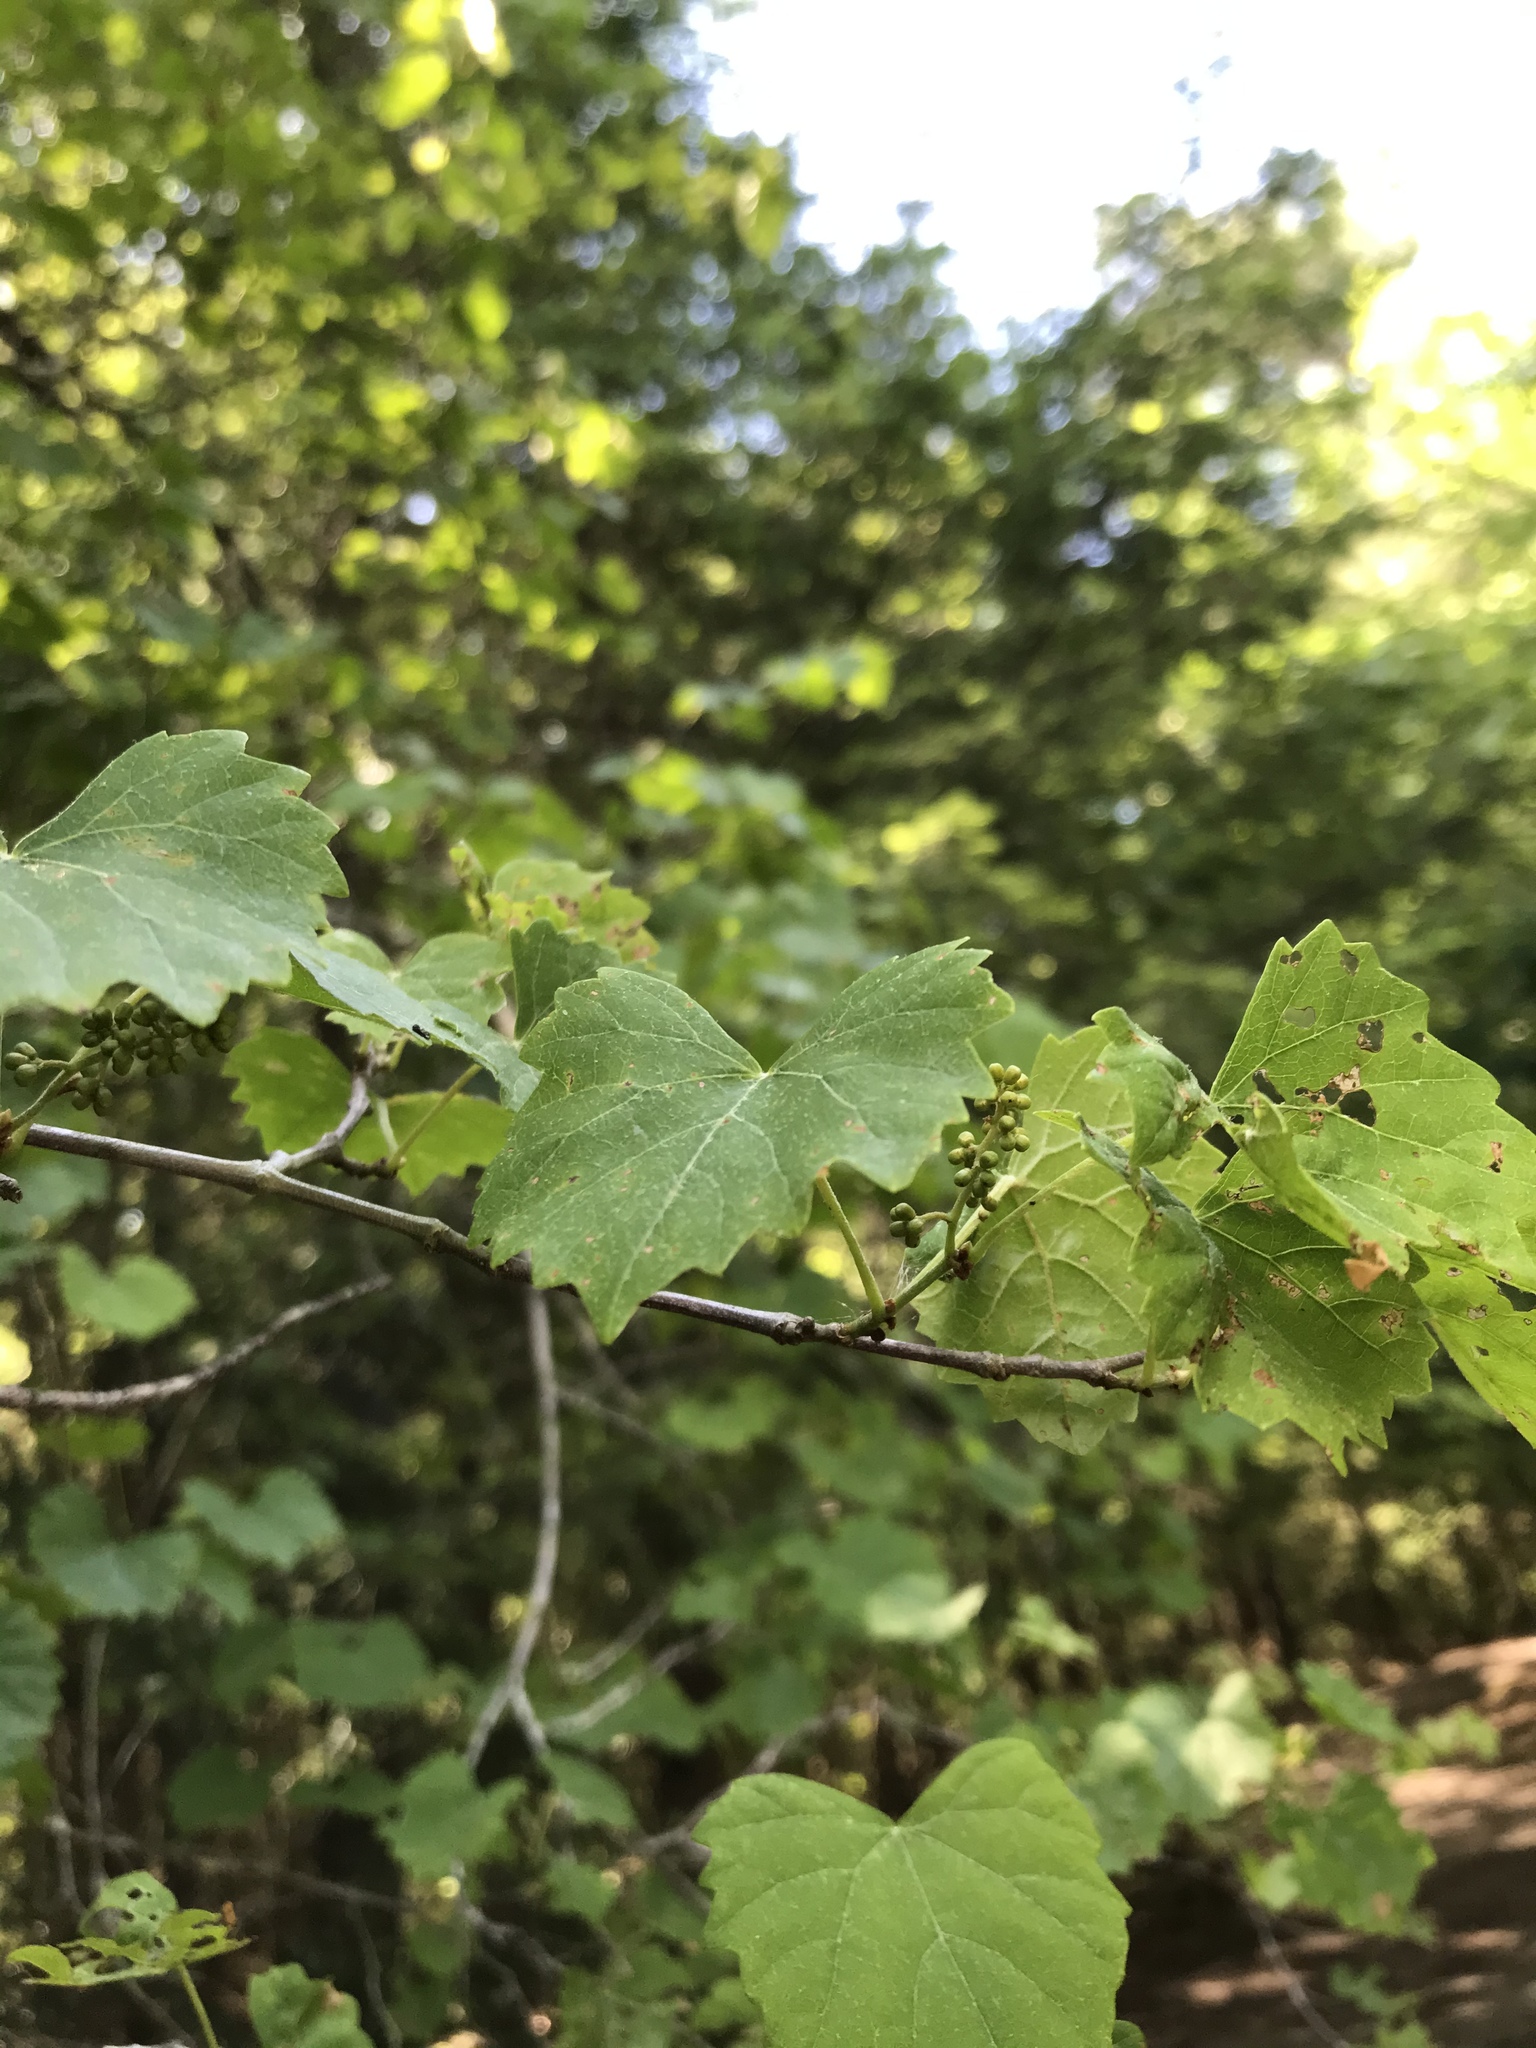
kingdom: Plantae
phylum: Tracheophyta
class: Magnoliopsida
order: Vitales
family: Vitaceae
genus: Vitis
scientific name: Vitis rotundifolia
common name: Muscadine grape
